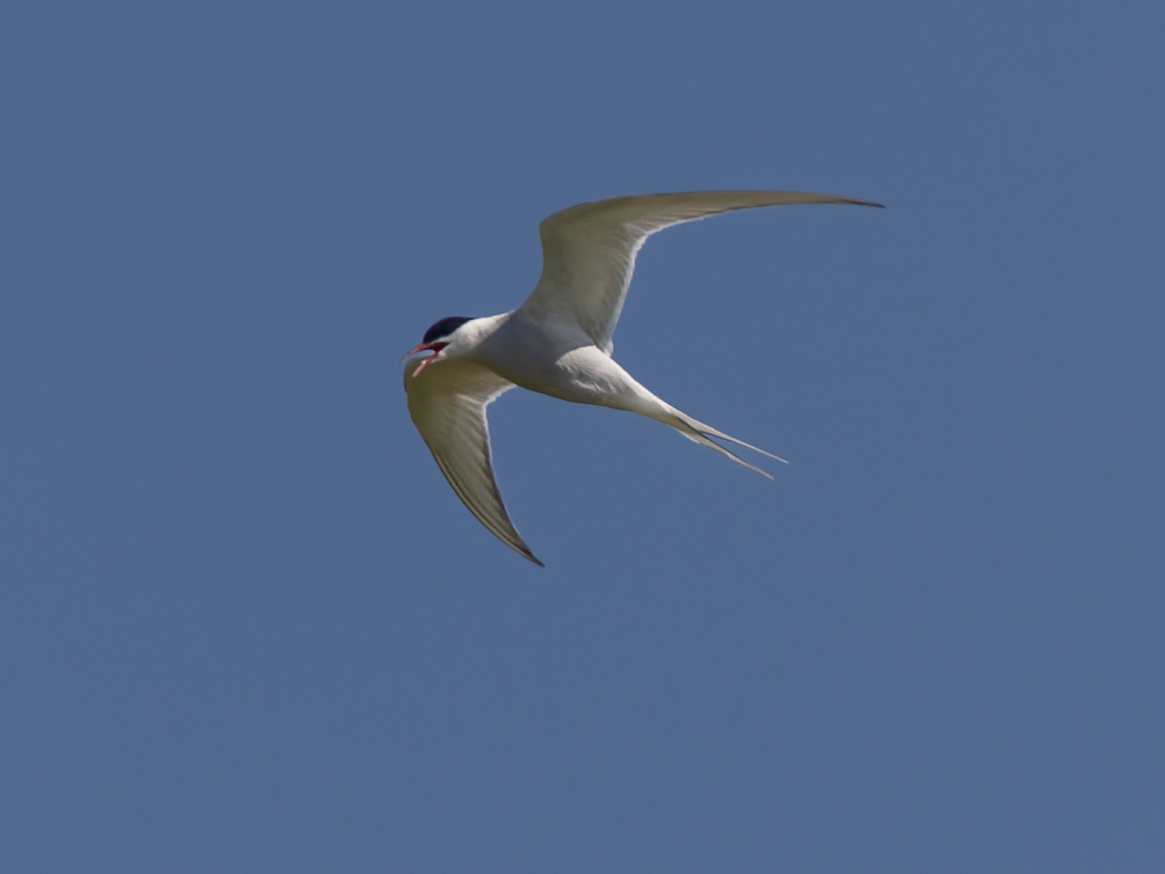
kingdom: Animalia
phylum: Chordata
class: Aves
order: Charadriiformes
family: Laridae
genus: Sterna
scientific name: Sterna paradisaea
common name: Arctic tern
